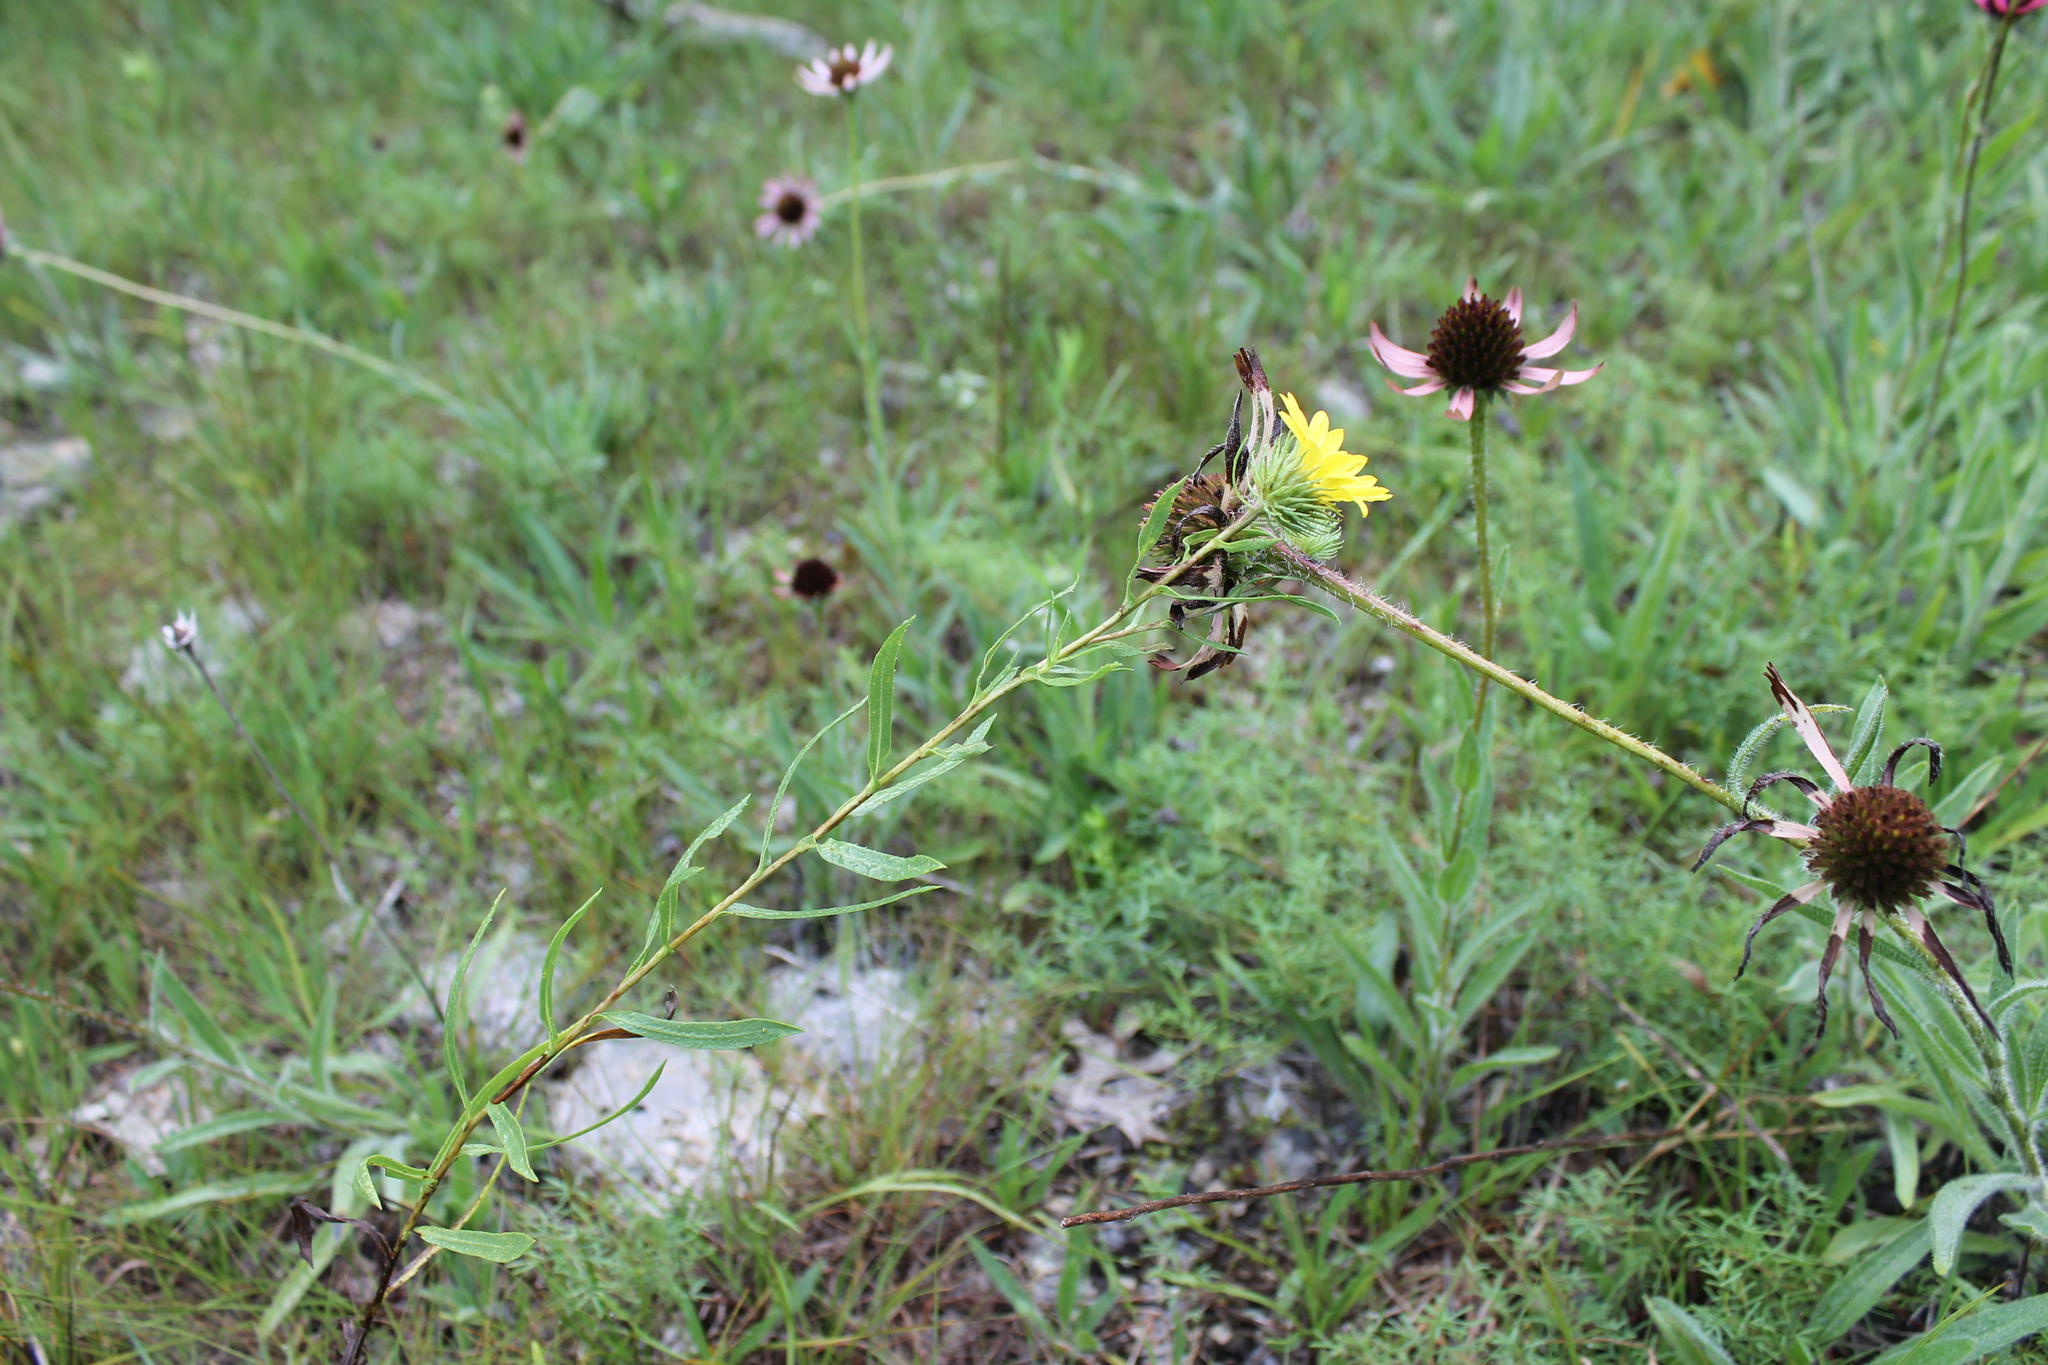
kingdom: Plantae
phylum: Tracheophyta
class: Magnoliopsida
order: Asterales
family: Asteraceae
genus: Grindelia
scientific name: Grindelia lanceolata
